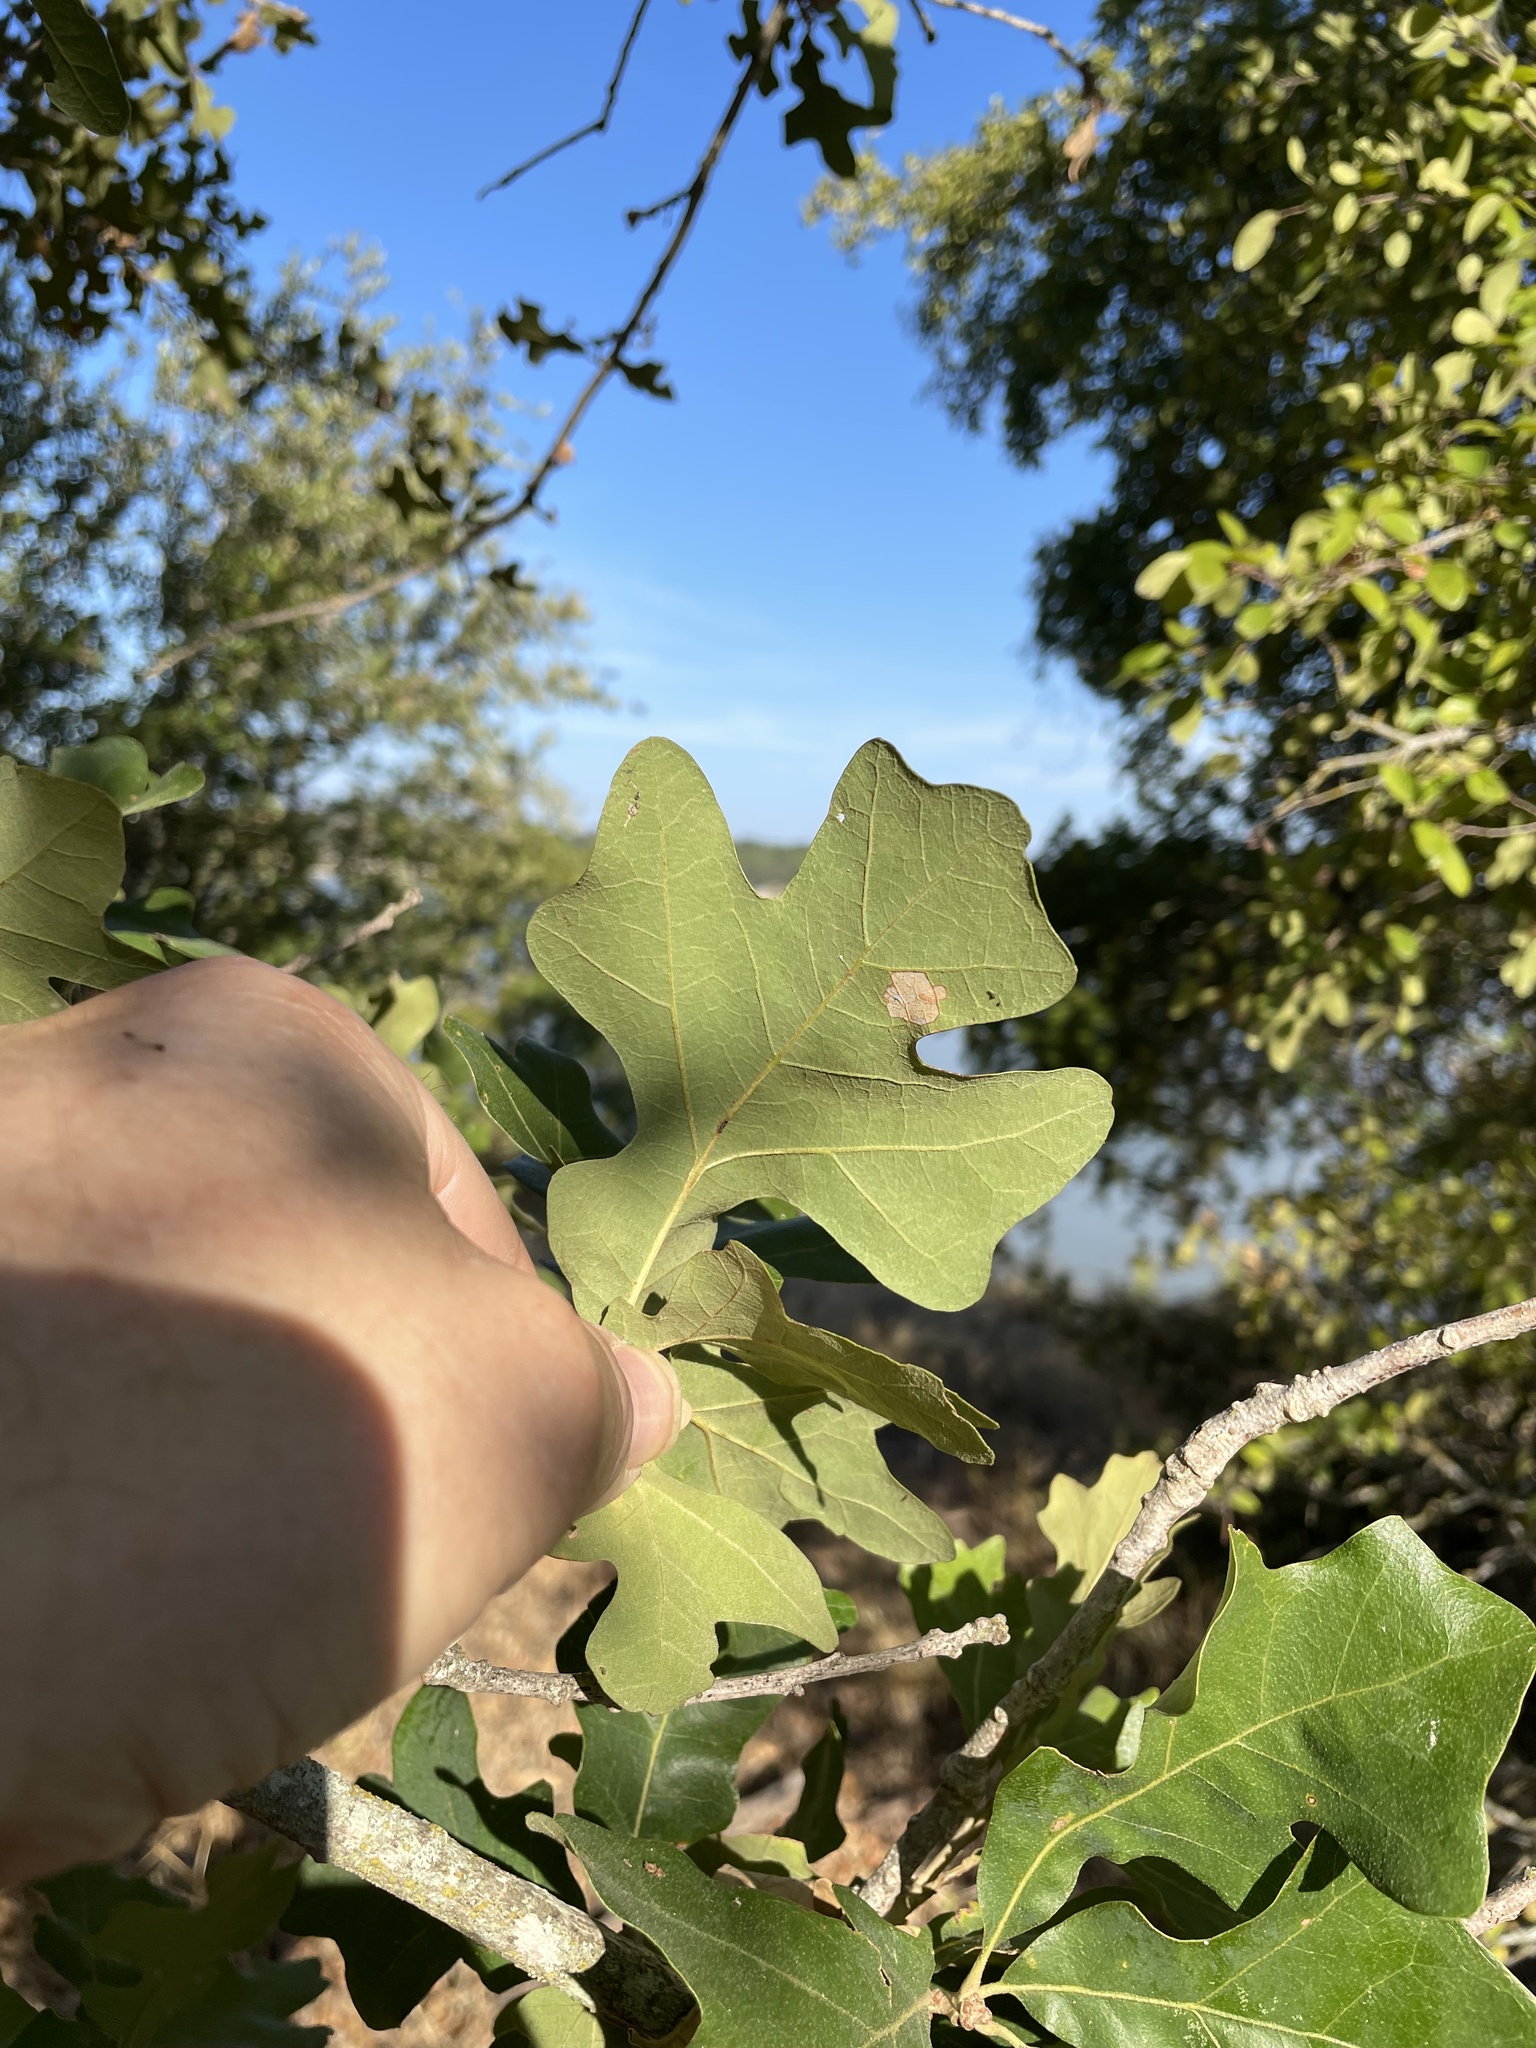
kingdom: Plantae
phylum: Tracheophyta
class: Magnoliopsida
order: Fagales
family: Fagaceae
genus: Quercus
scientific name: Quercus stellata
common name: Post oak
